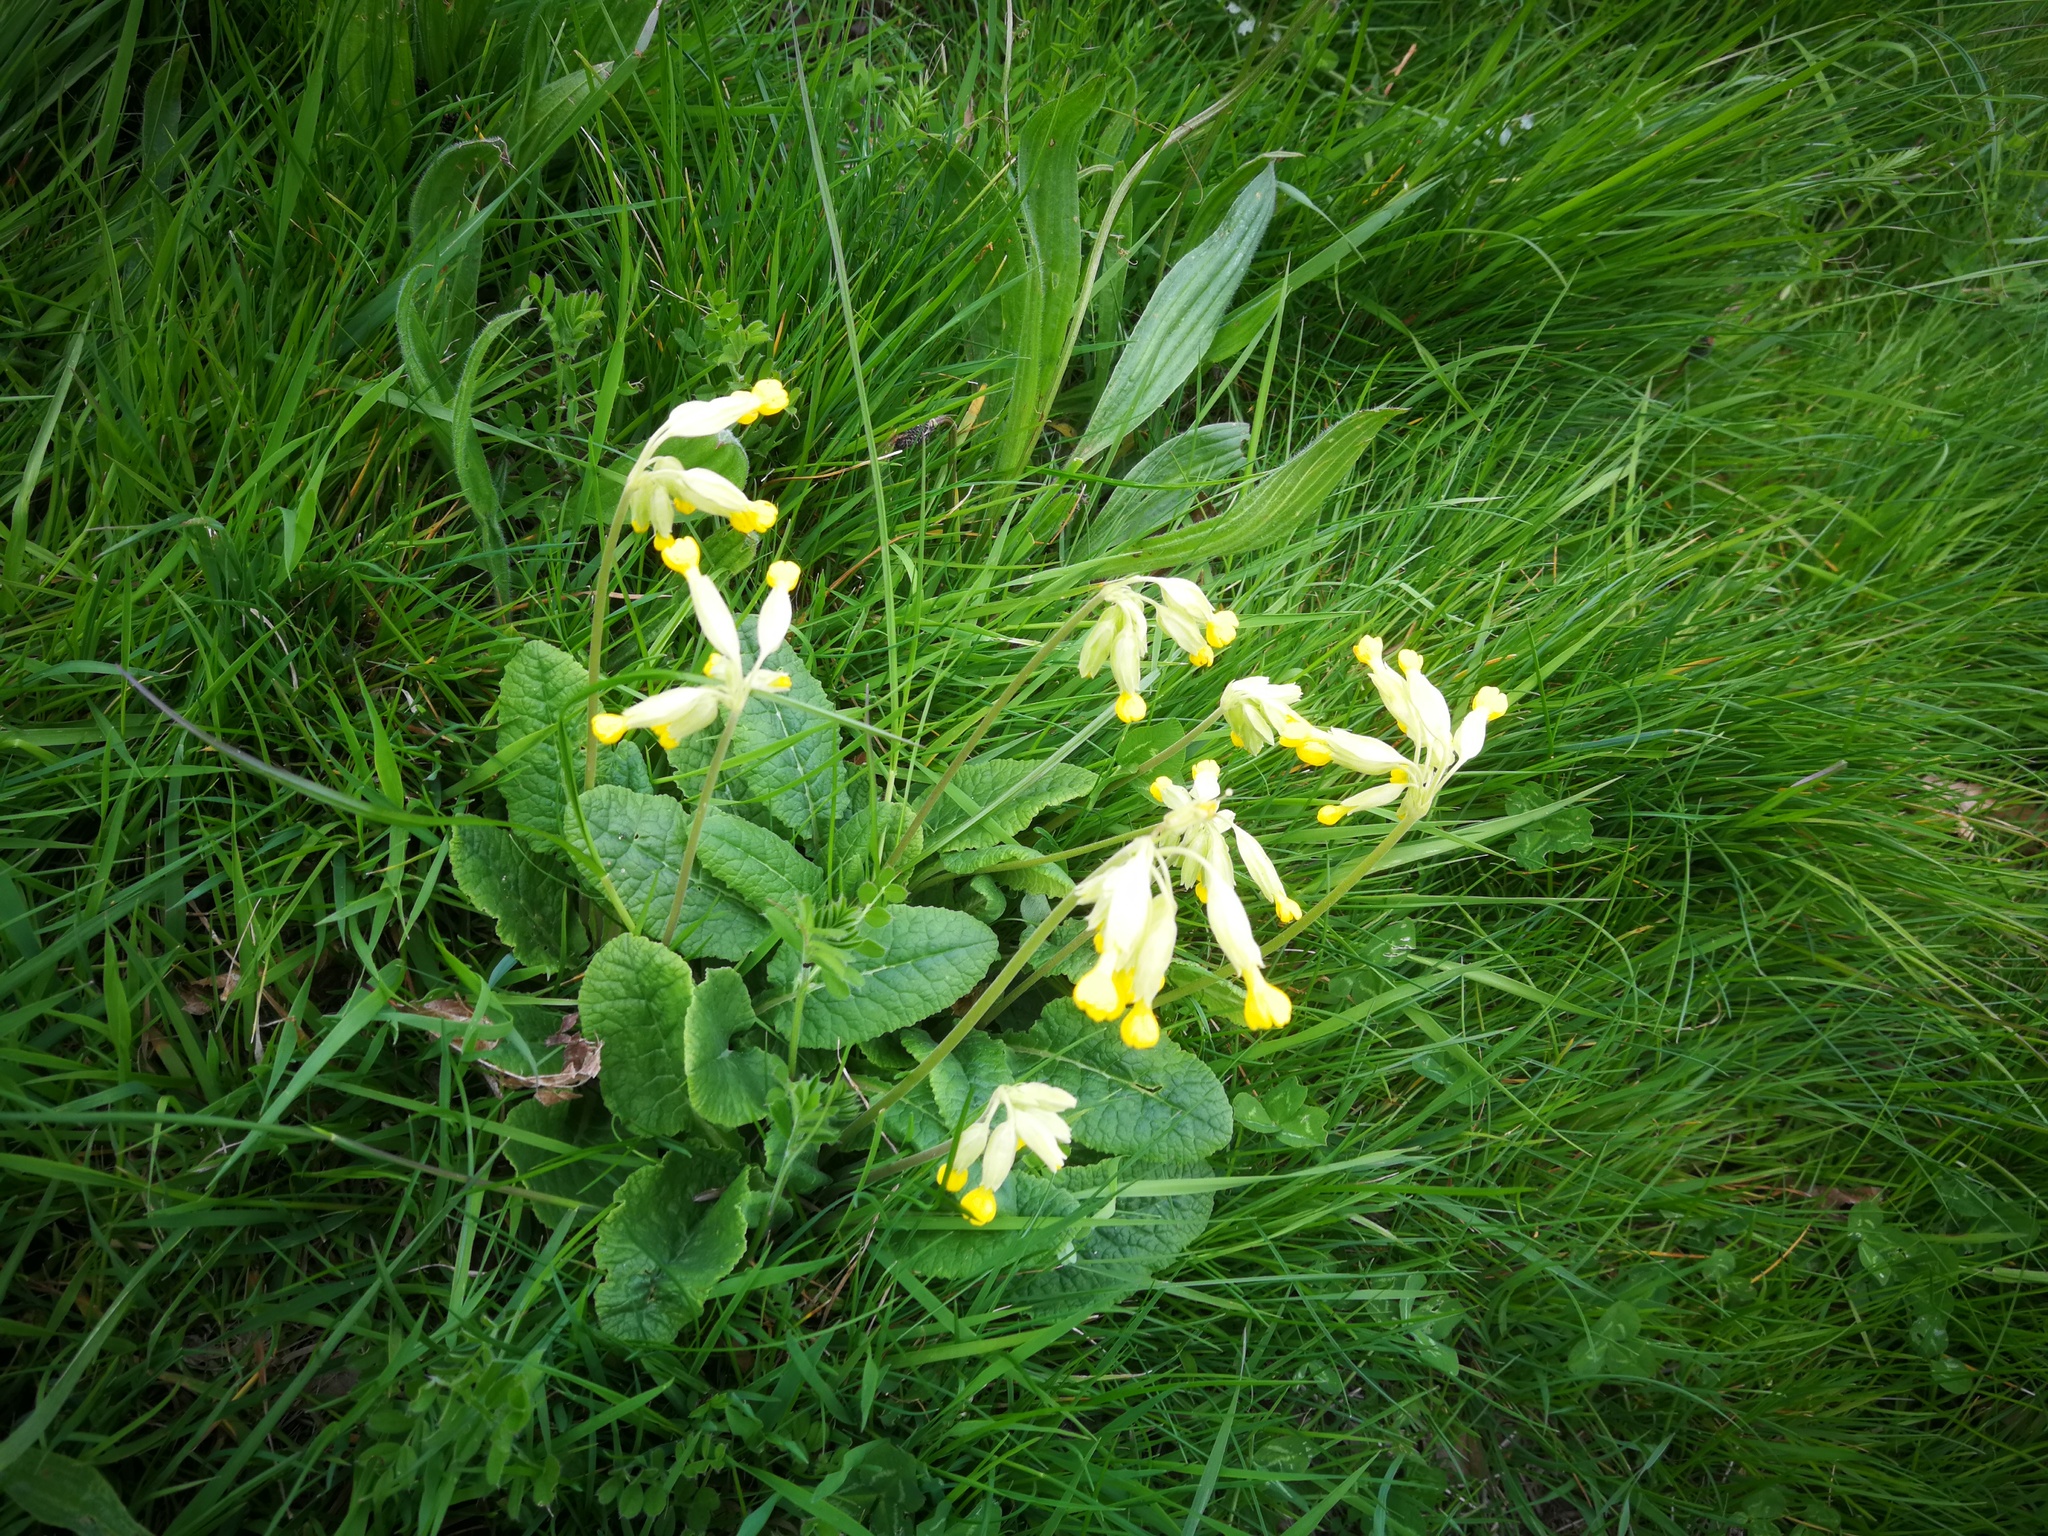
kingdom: Plantae
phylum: Tracheophyta
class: Magnoliopsida
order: Ericales
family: Primulaceae
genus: Primula
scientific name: Primula veris
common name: Cowslip
